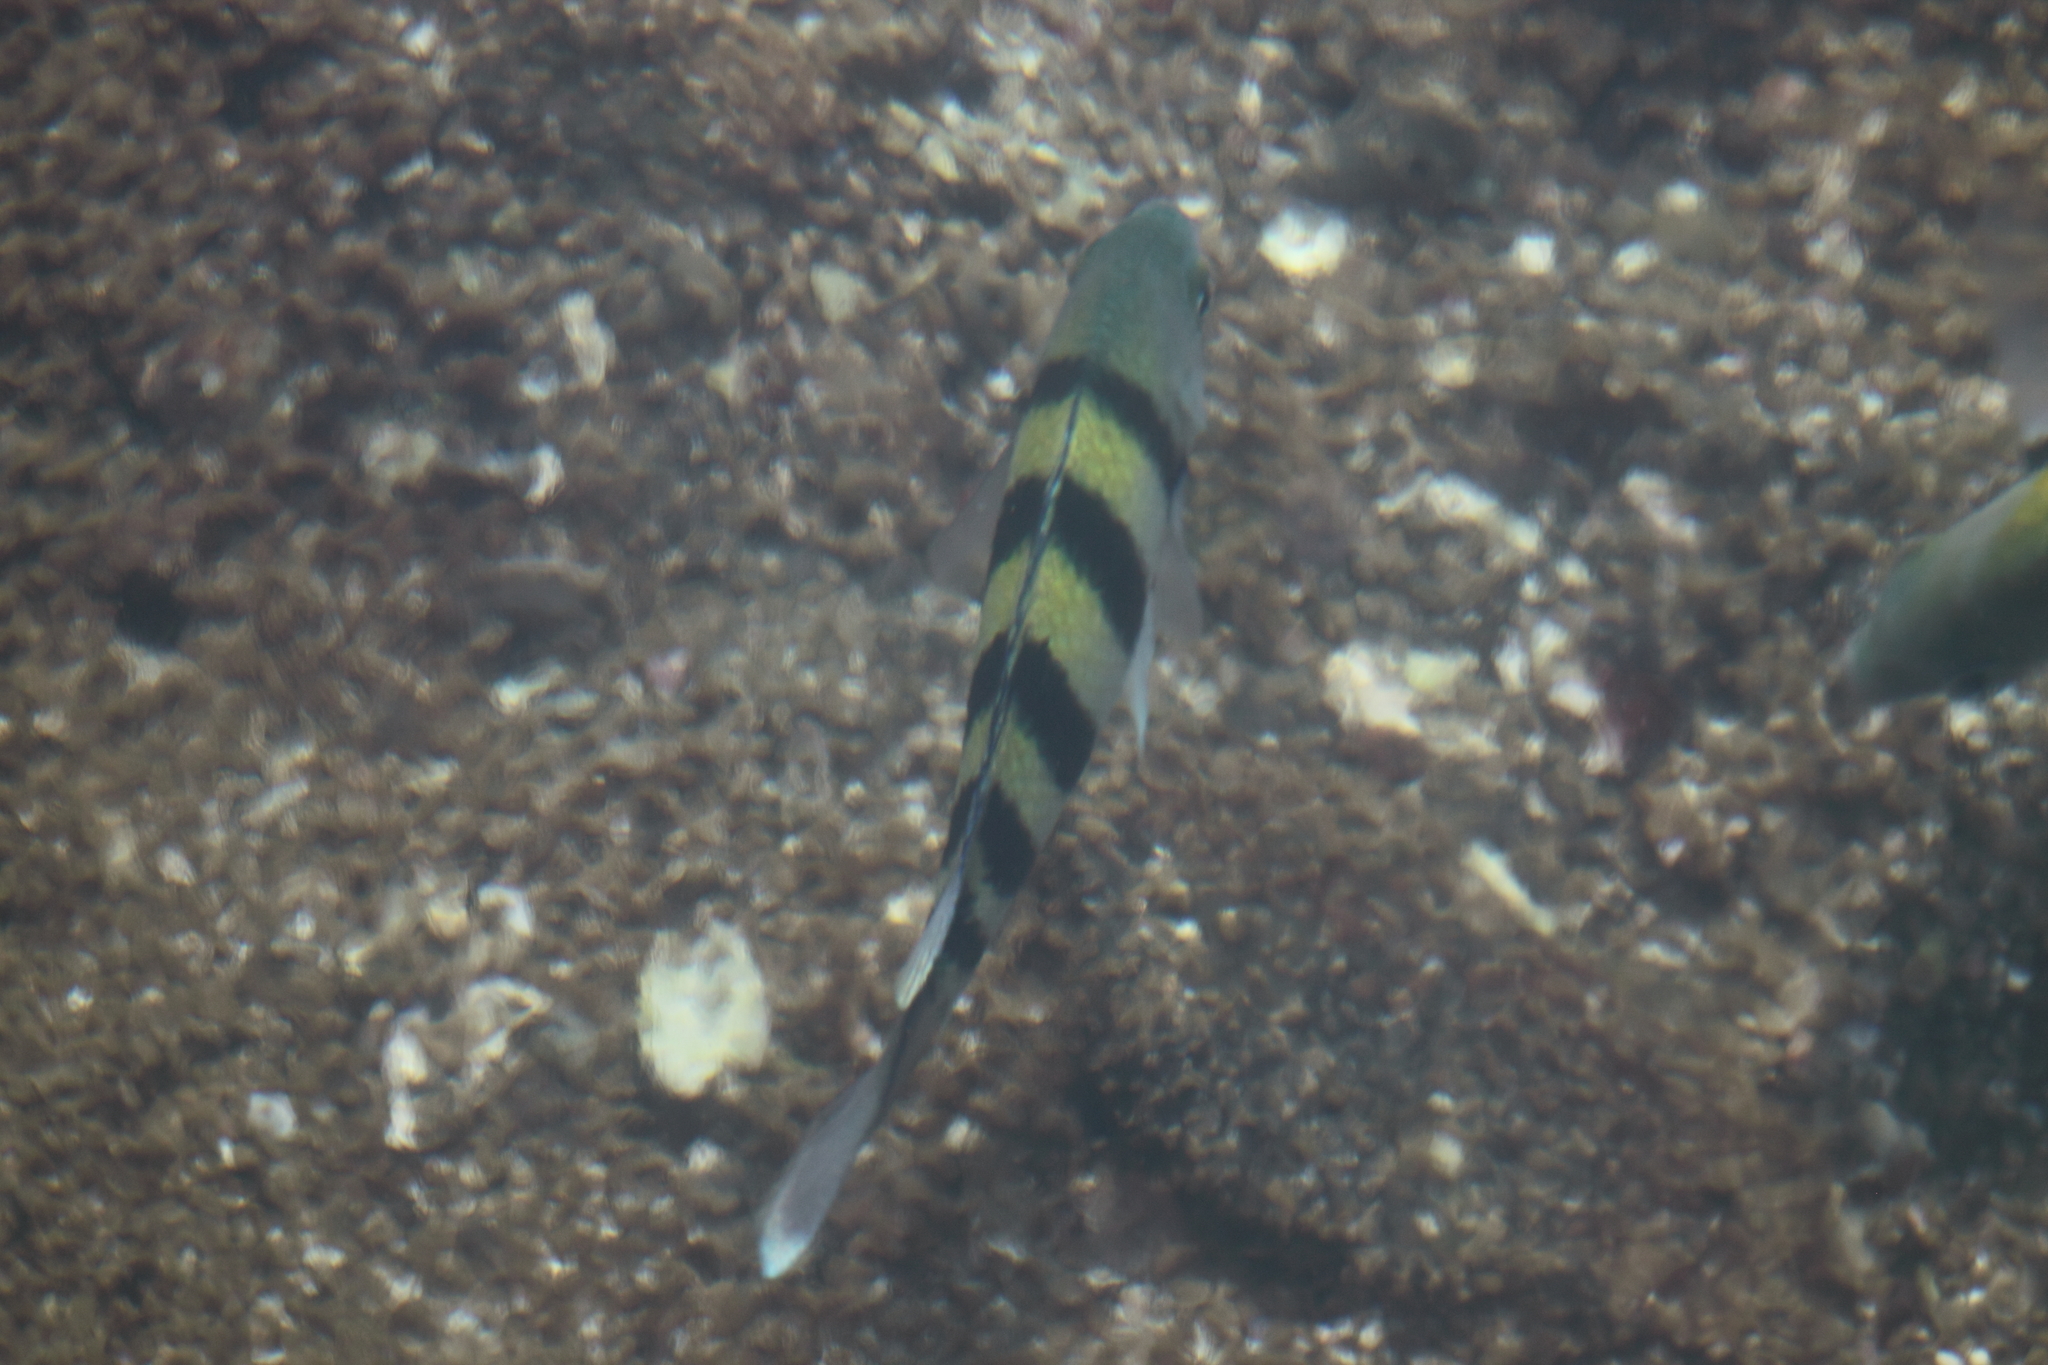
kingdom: Animalia
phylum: Chordata
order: Perciformes
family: Pomacentridae
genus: Abudefduf
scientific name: Abudefduf vaigiensis
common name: Indo-pacific sergeant
